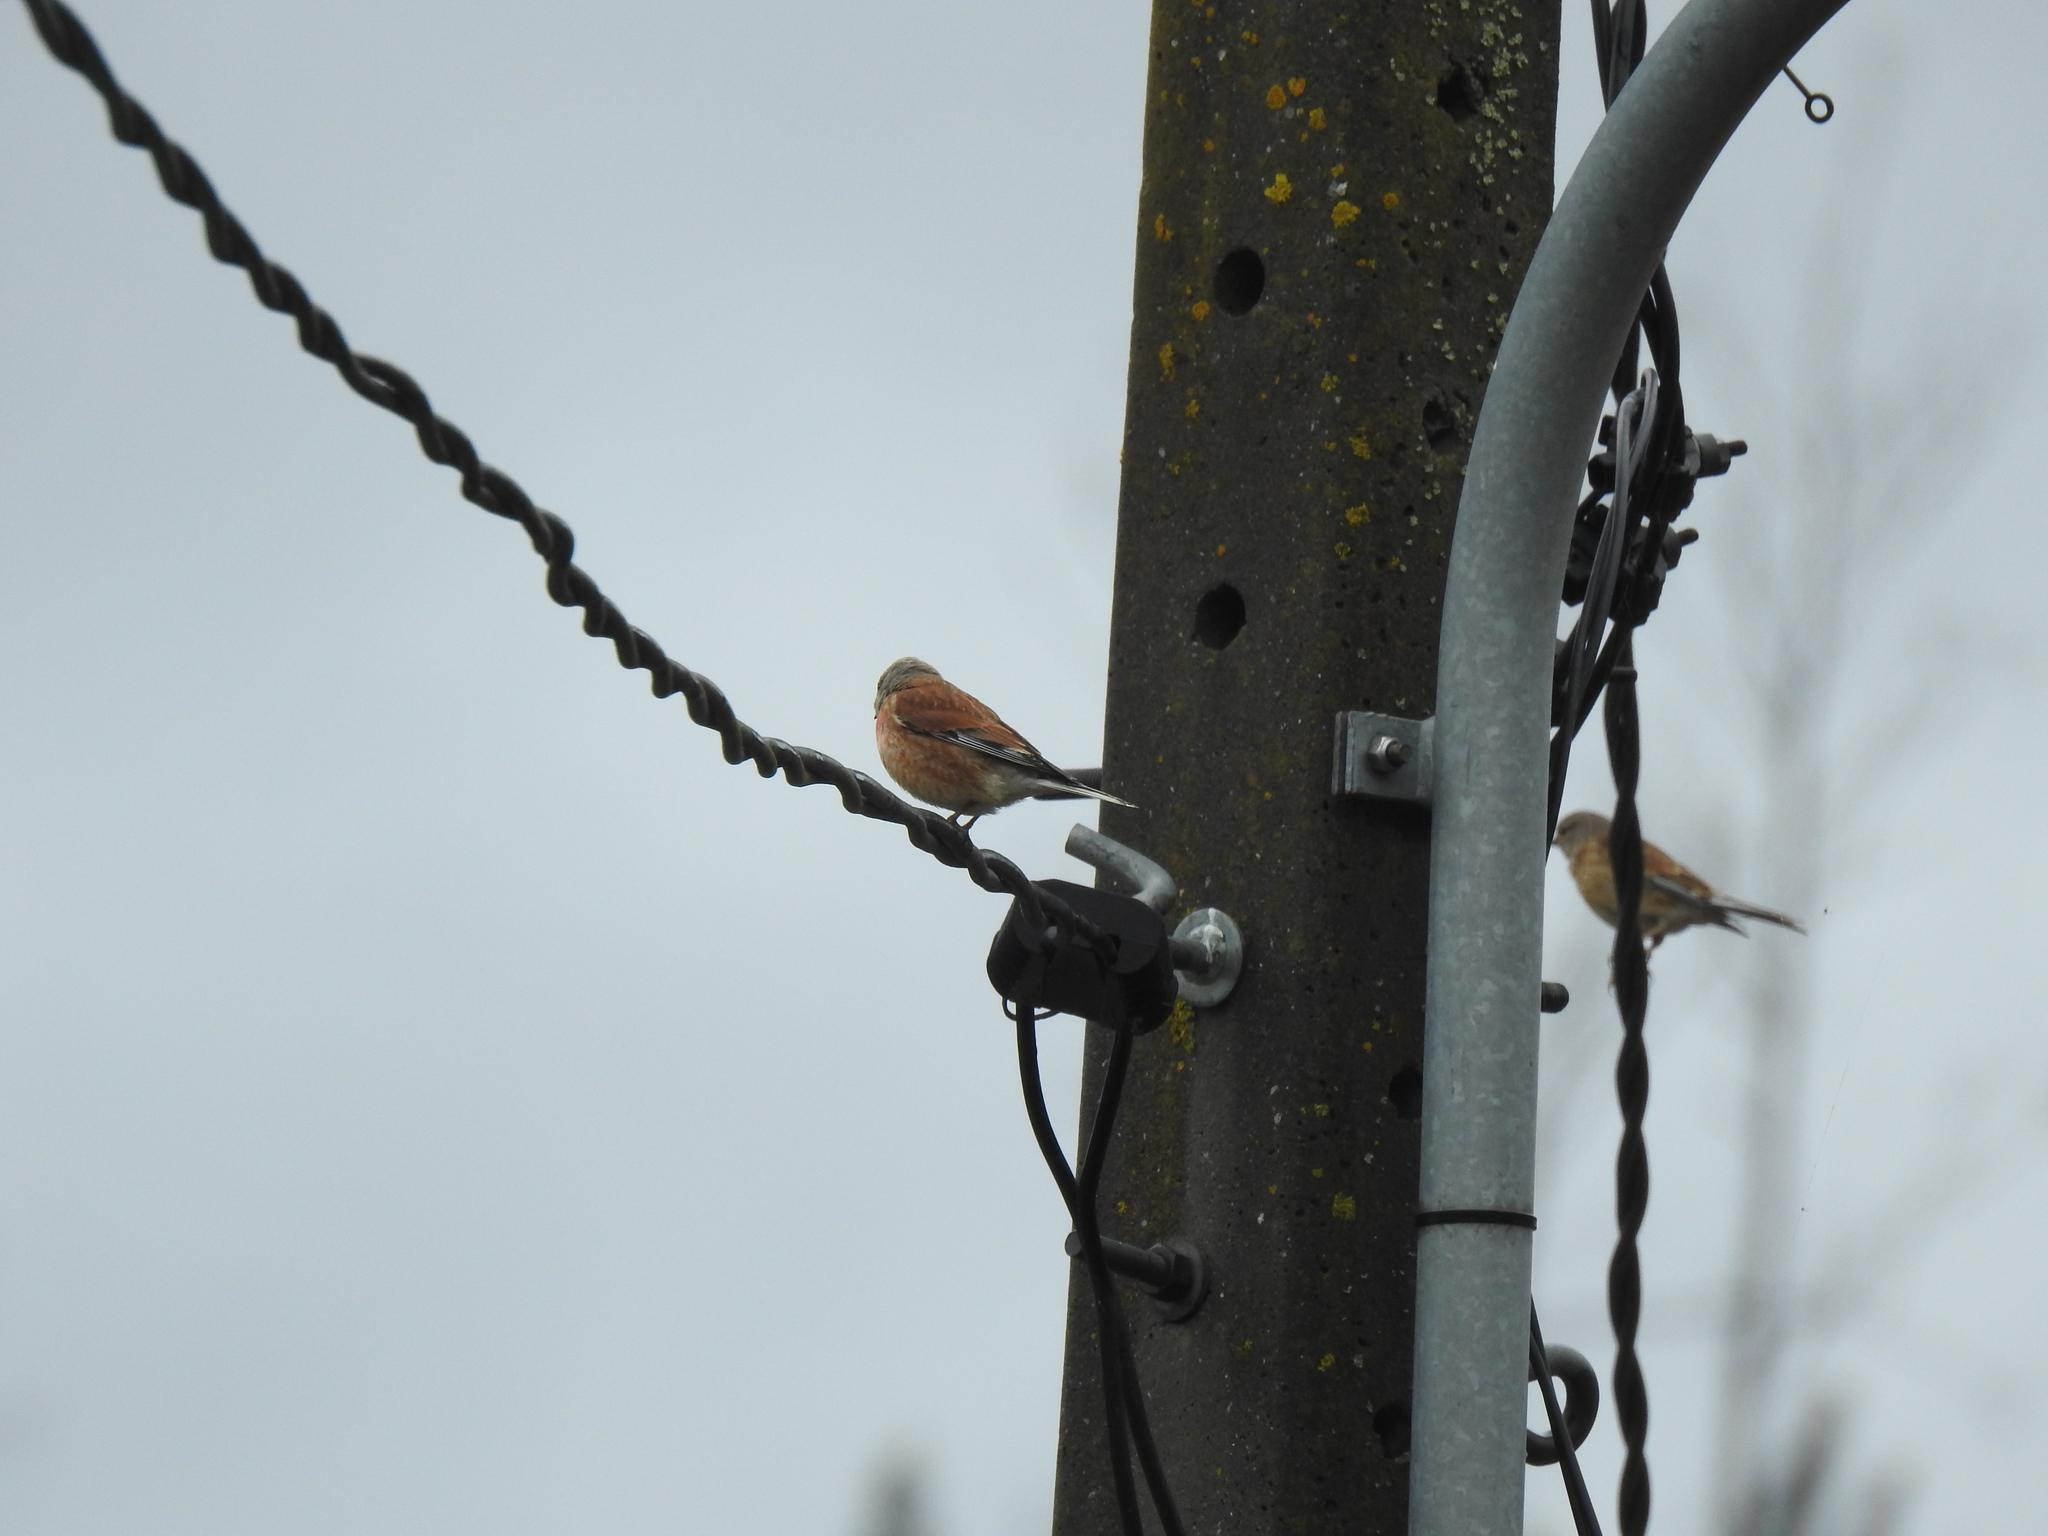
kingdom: Animalia
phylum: Chordata
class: Aves
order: Passeriformes
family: Fringillidae
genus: Linaria
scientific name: Linaria cannabina
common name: Common linnet
